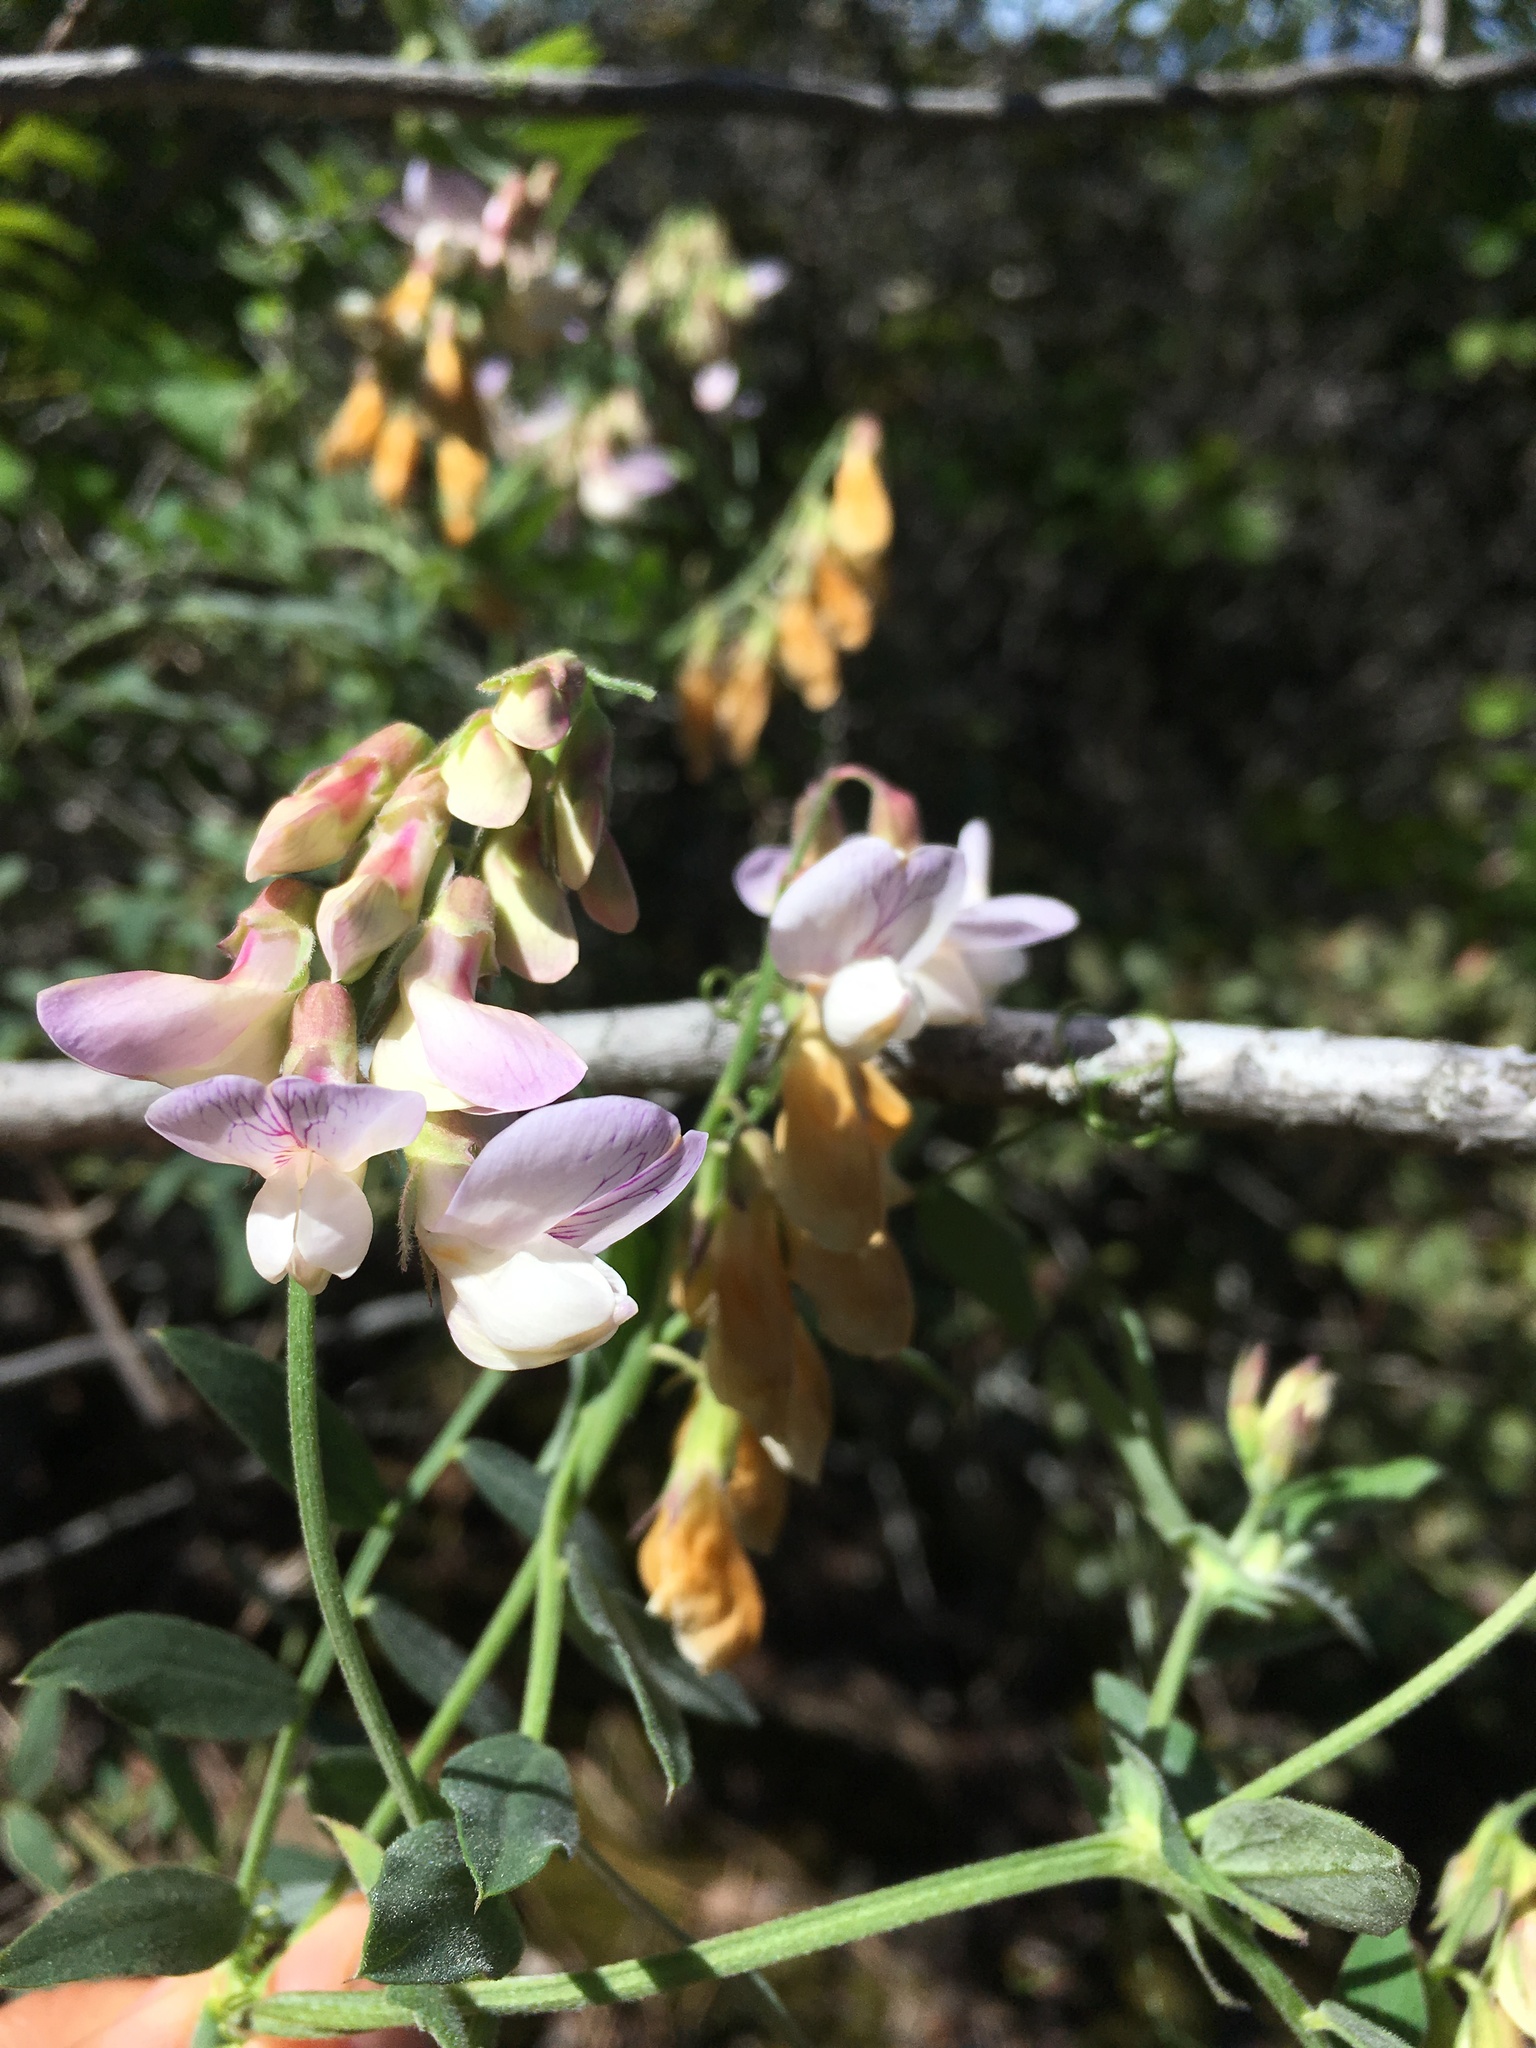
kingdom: Plantae
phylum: Tracheophyta
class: Magnoliopsida
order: Fabales
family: Fabaceae
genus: Lathyrus
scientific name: Lathyrus vestitus
